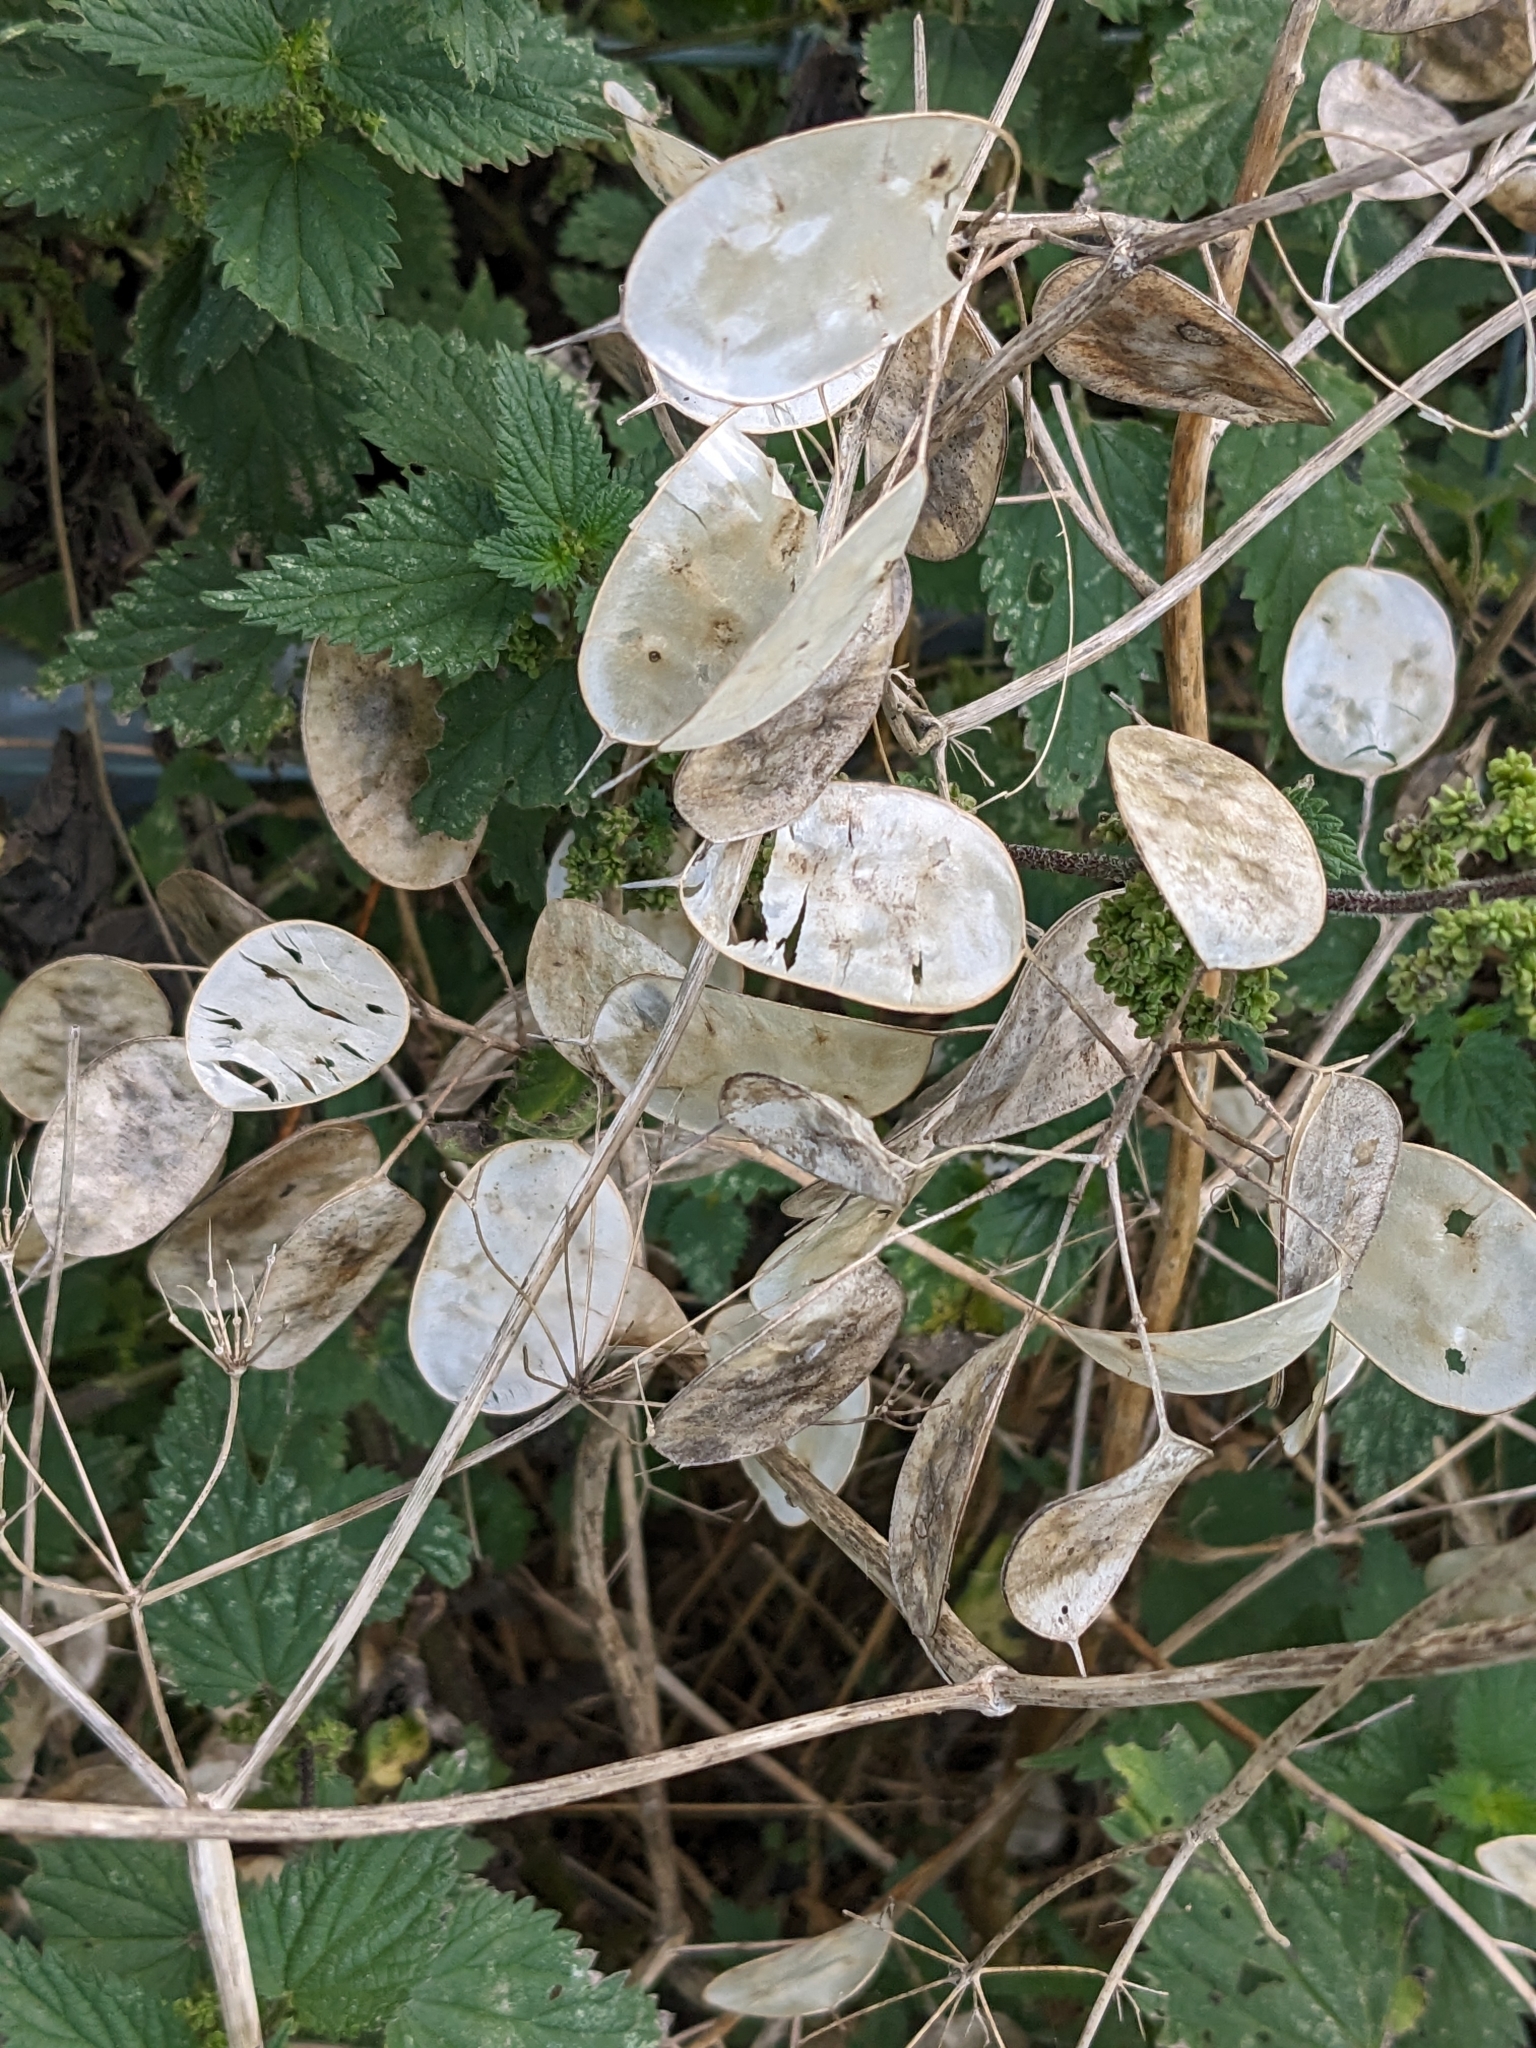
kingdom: Plantae
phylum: Tracheophyta
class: Magnoliopsida
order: Brassicales
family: Brassicaceae
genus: Lunaria
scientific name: Lunaria annua
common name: Honesty
